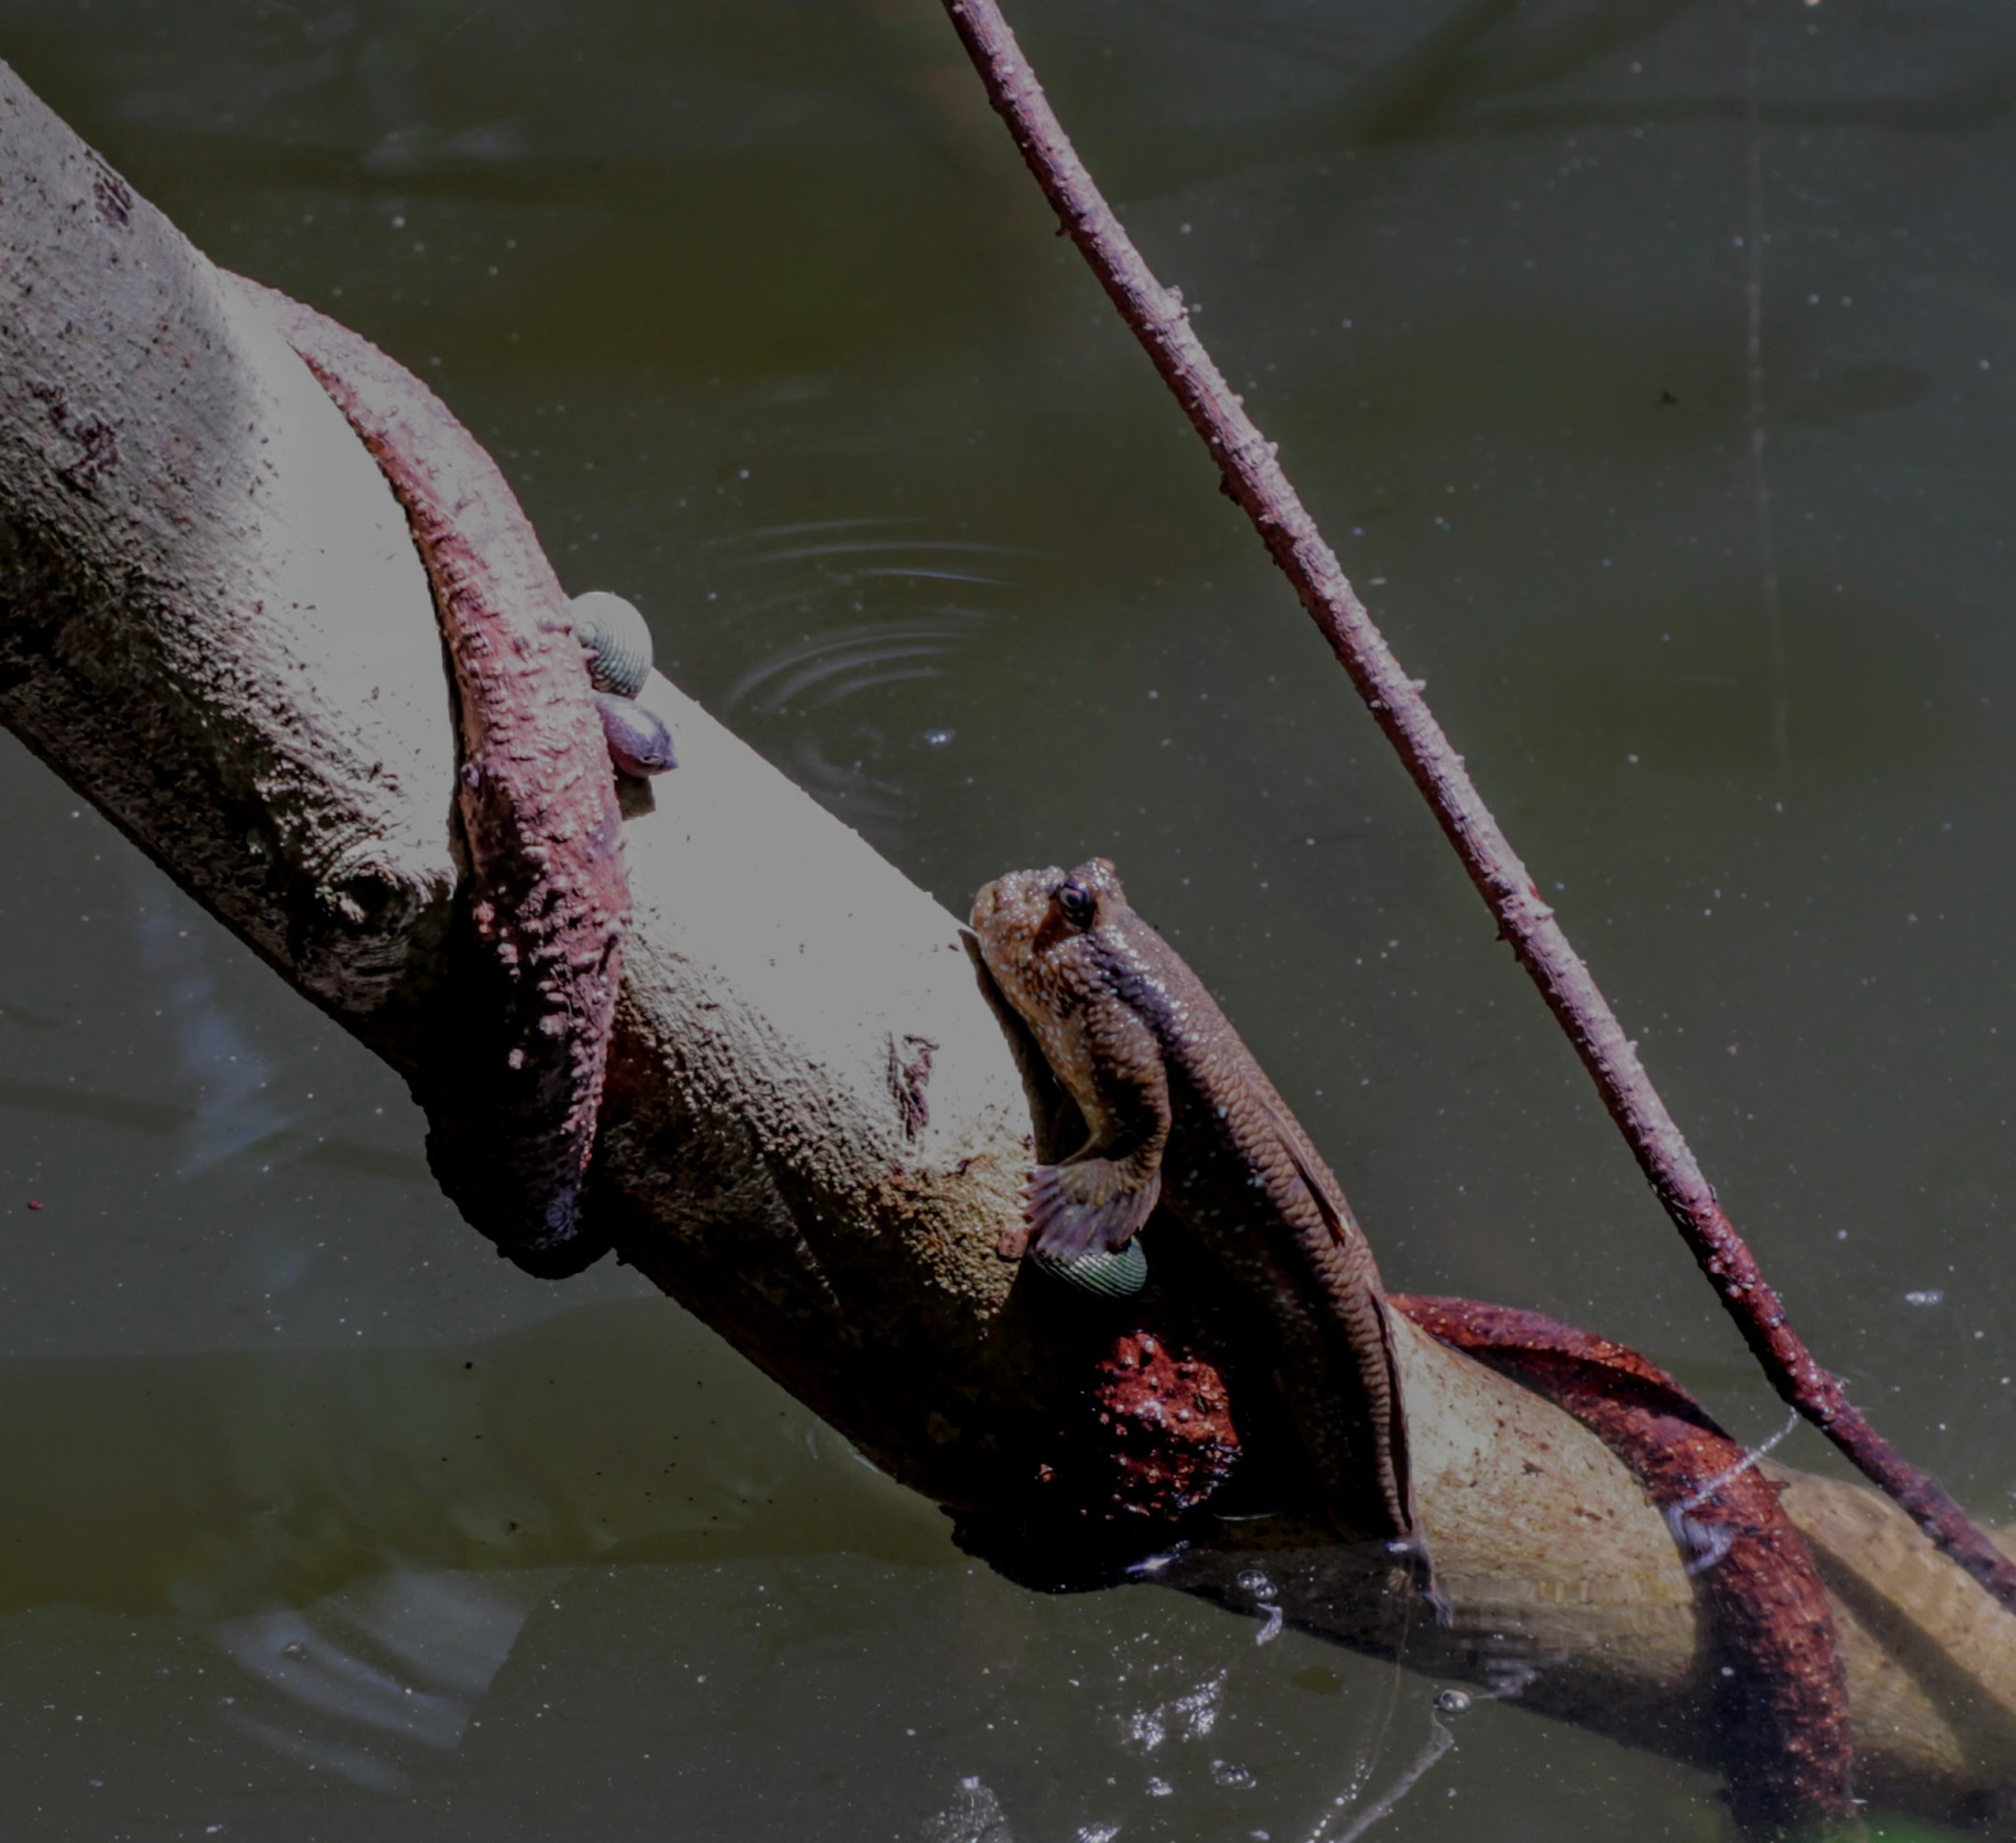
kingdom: Animalia
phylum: Chordata
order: Perciformes
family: Gobiidae
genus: Periophthalmodon
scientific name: Periophthalmodon schlosseri
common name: Giant mudskipper
